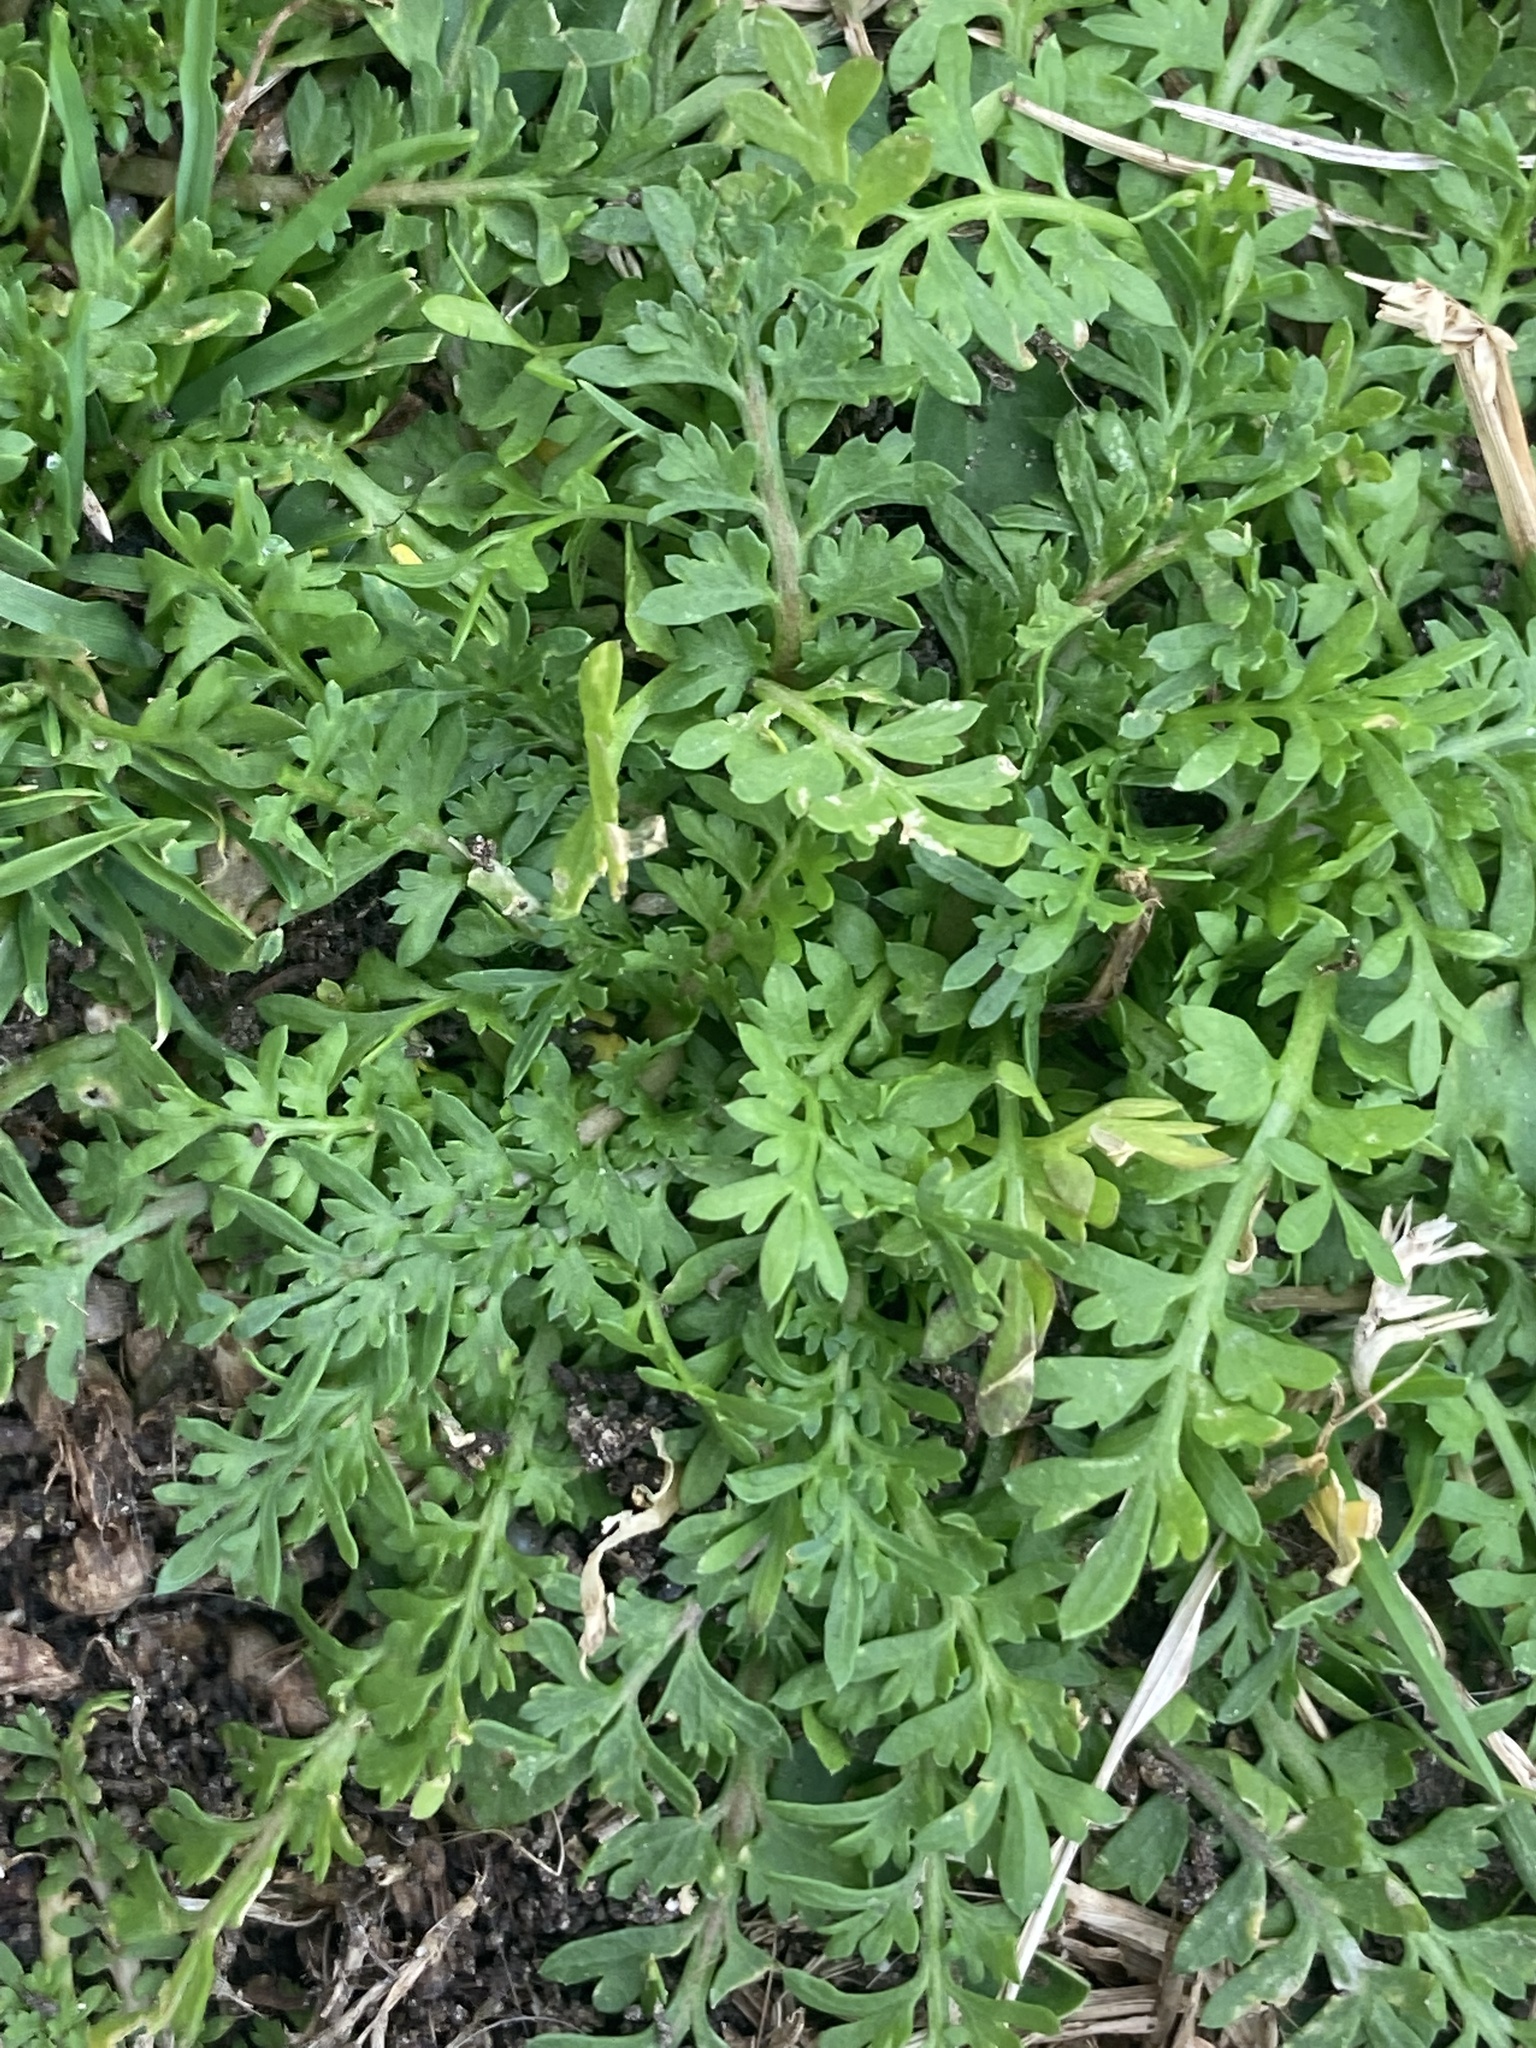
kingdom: Plantae
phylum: Tracheophyta
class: Magnoliopsida
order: Brassicales
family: Brassicaceae
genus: Lepidium
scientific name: Lepidium didymum
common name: Lesser swinecress
